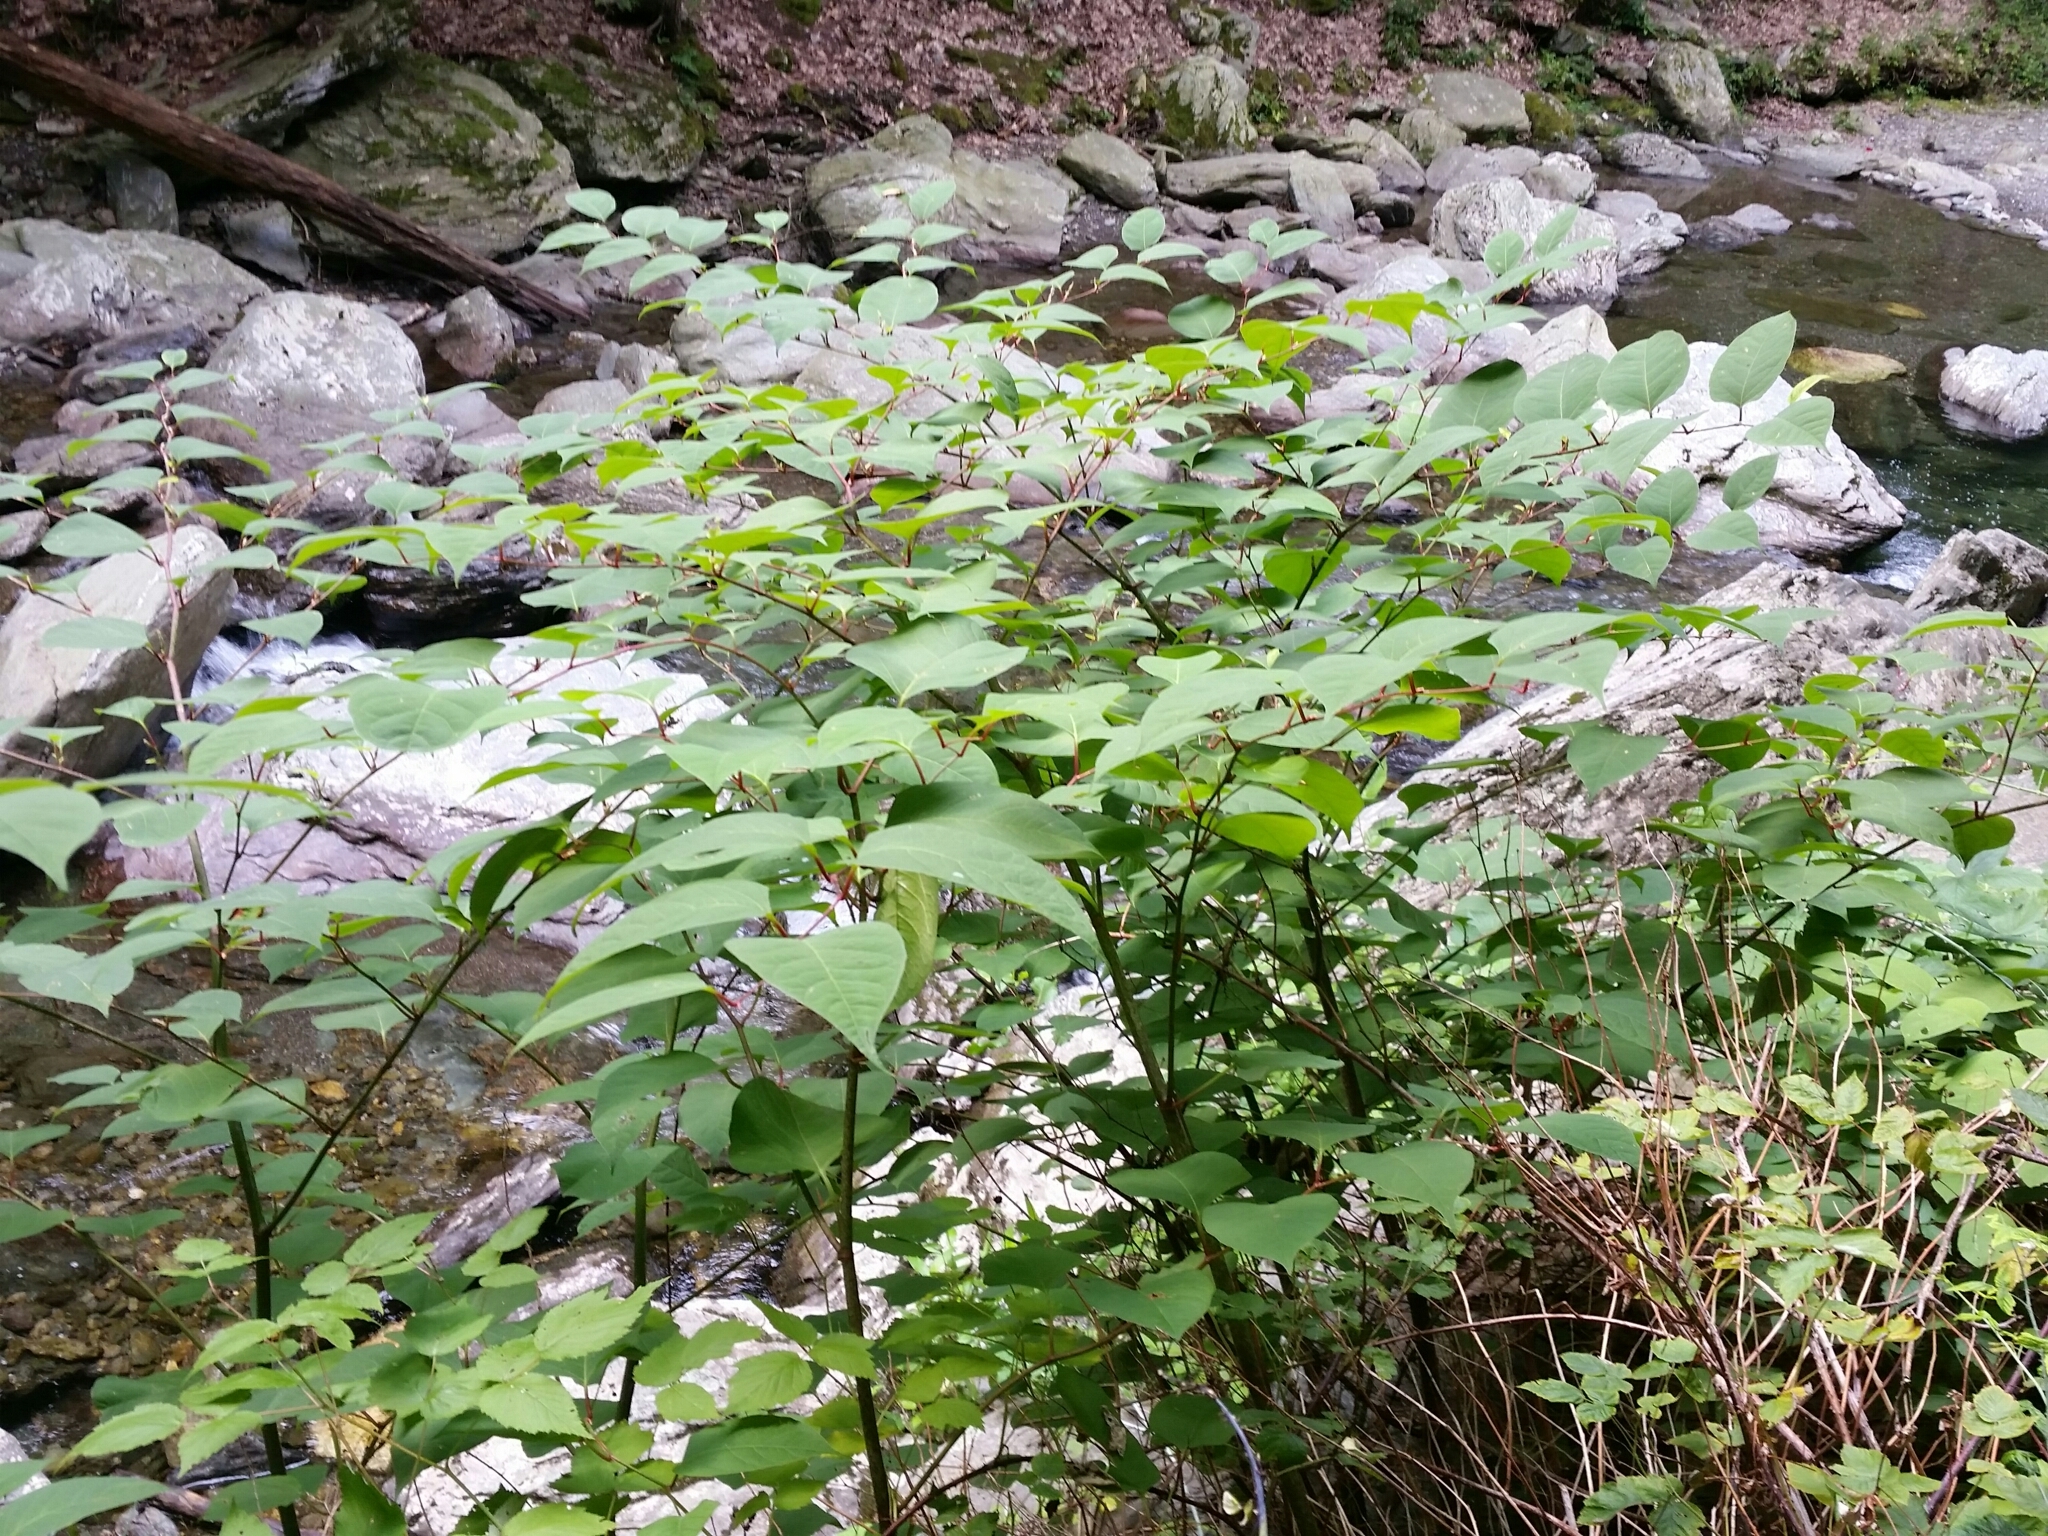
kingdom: Plantae
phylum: Tracheophyta
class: Magnoliopsida
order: Caryophyllales
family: Polygonaceae
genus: Reynoutria
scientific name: Reynoutria japonica
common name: Japanese knotweed
